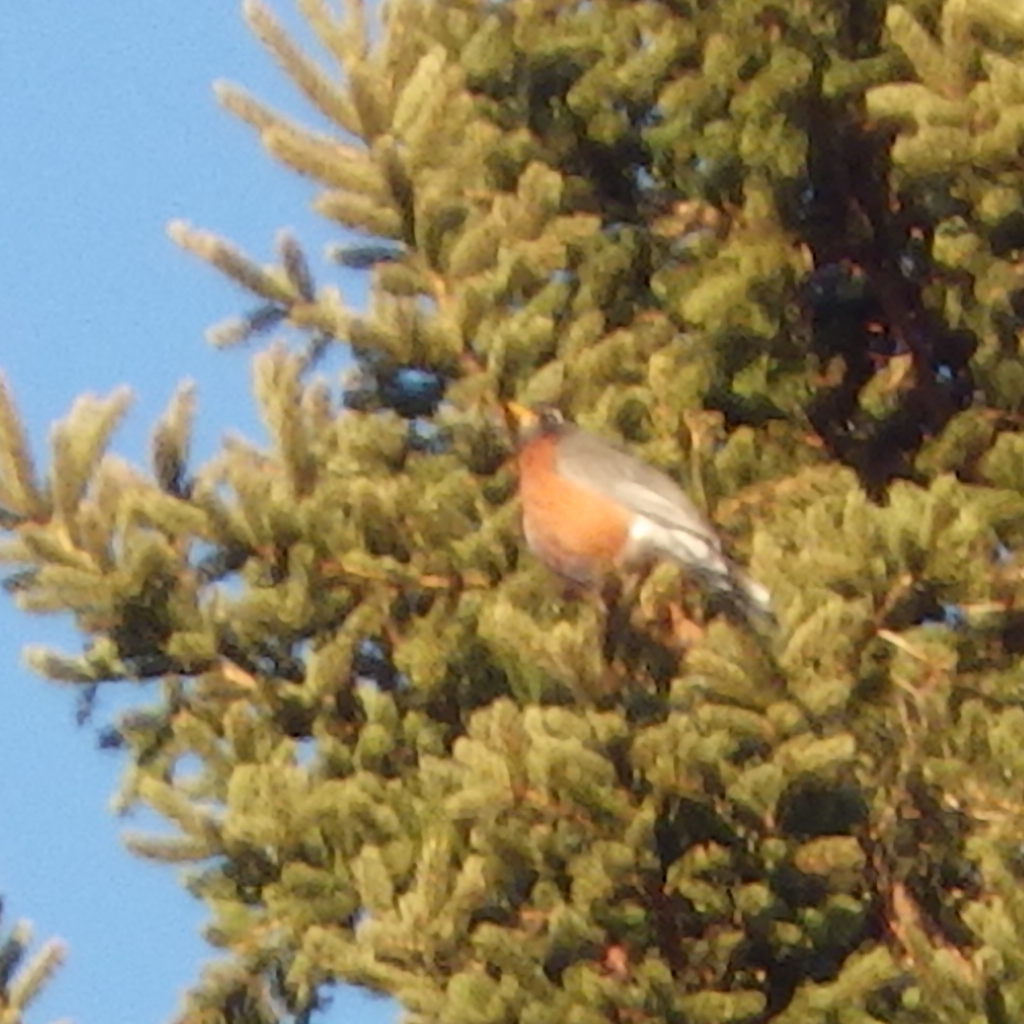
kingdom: Animalia
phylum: Chordata
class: Aves
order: Passeriformes
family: Turdidae
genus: Turdus
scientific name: Turdus migratorius
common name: American robin
